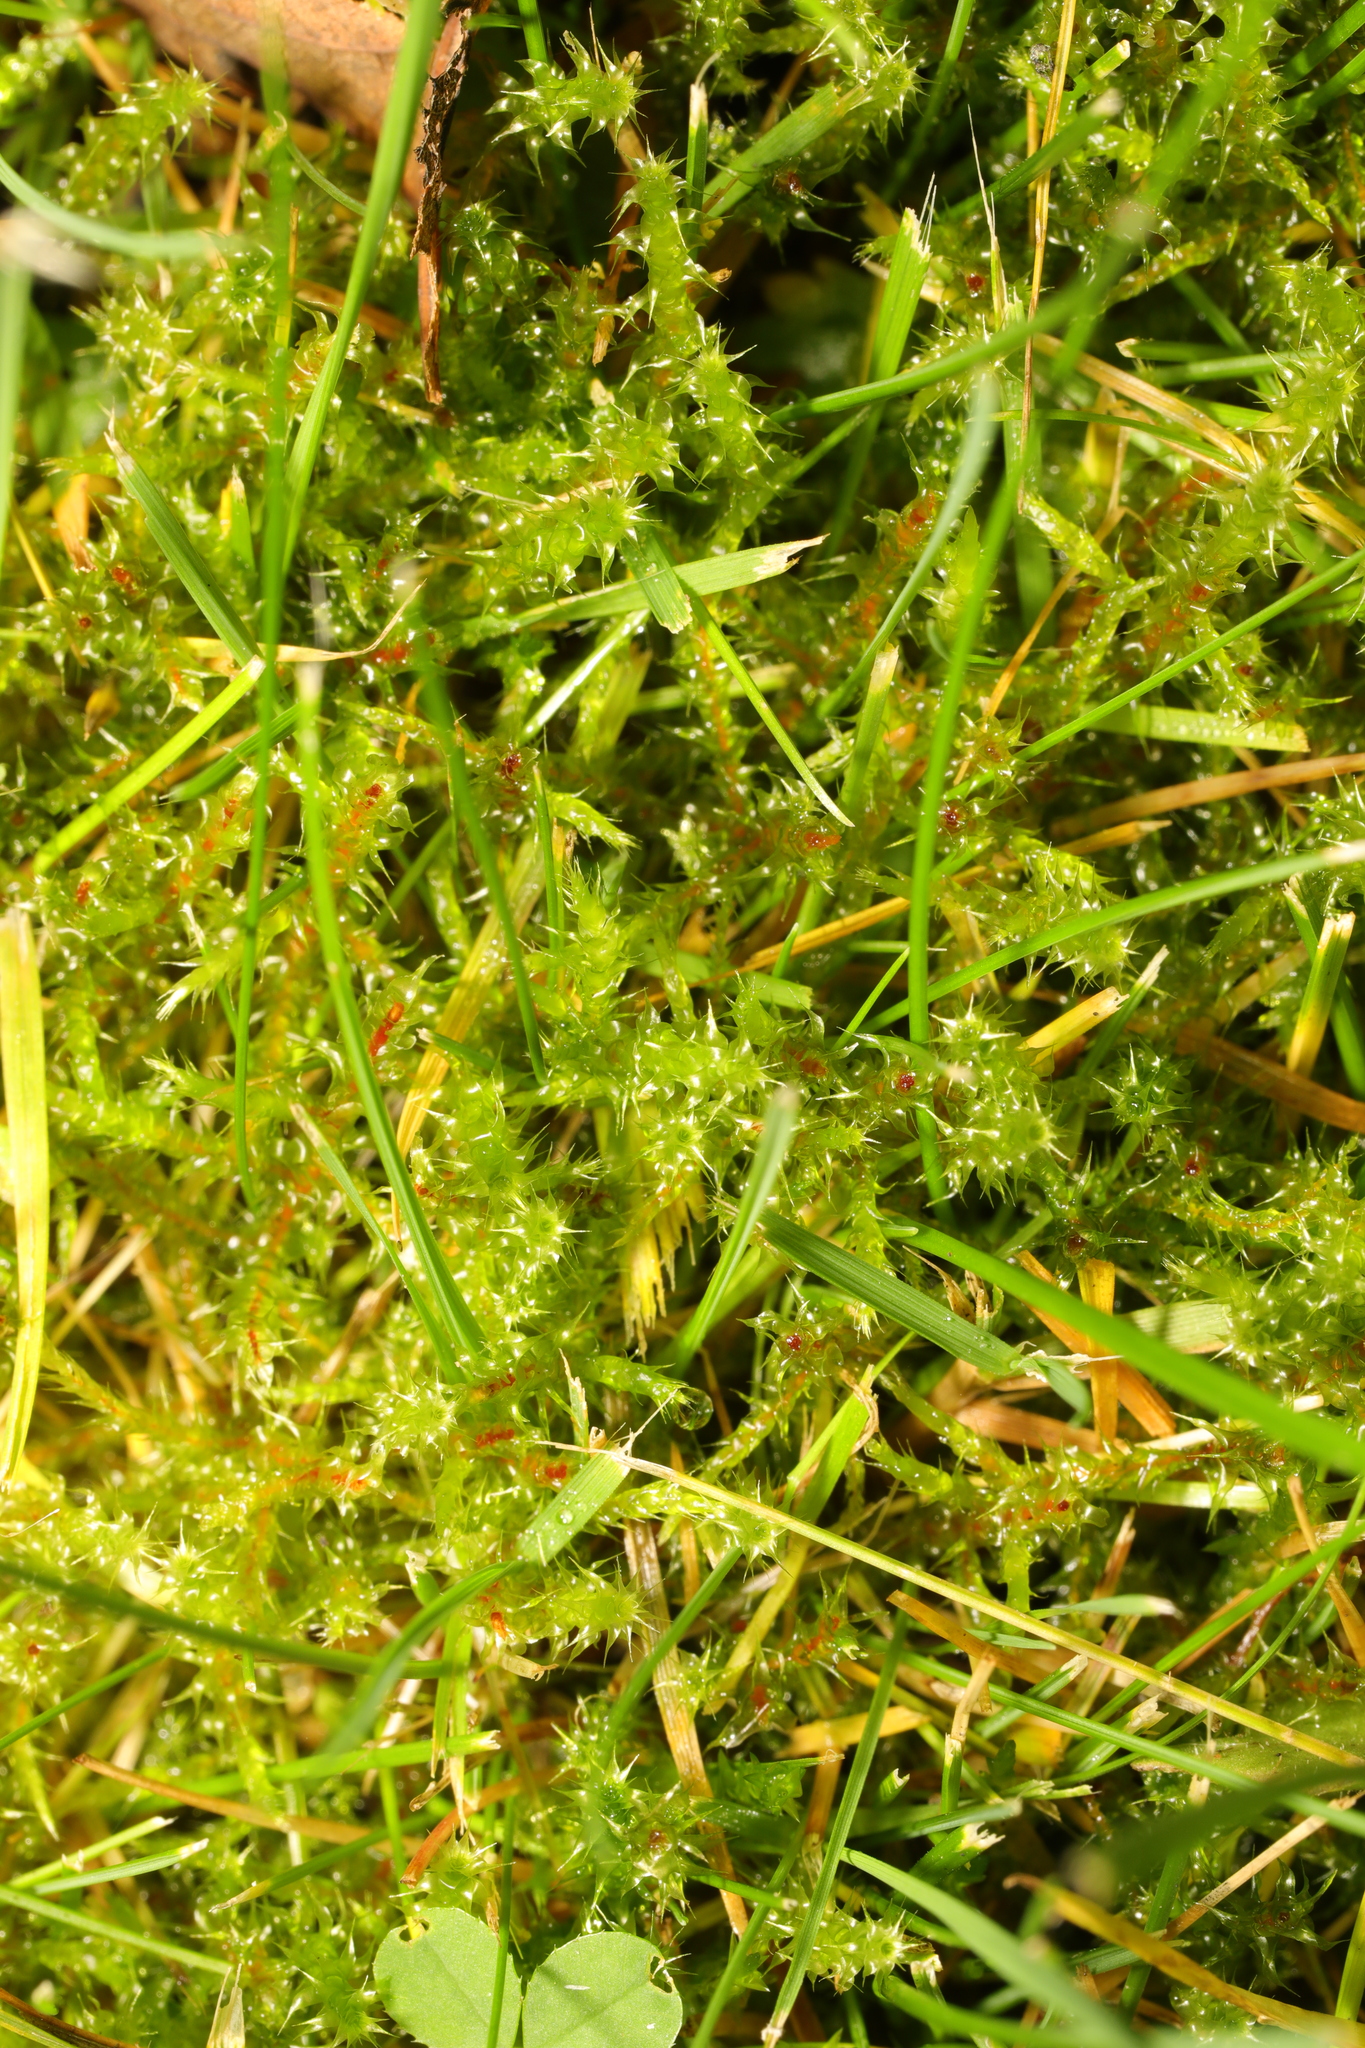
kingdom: Plantae
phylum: Bryophyta
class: Bryopsida
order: Hypnales
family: Hylocomiaceae
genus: Rhytidiadelphus
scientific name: Rhytidiadelphus squarrosus
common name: Springy turf-moss
